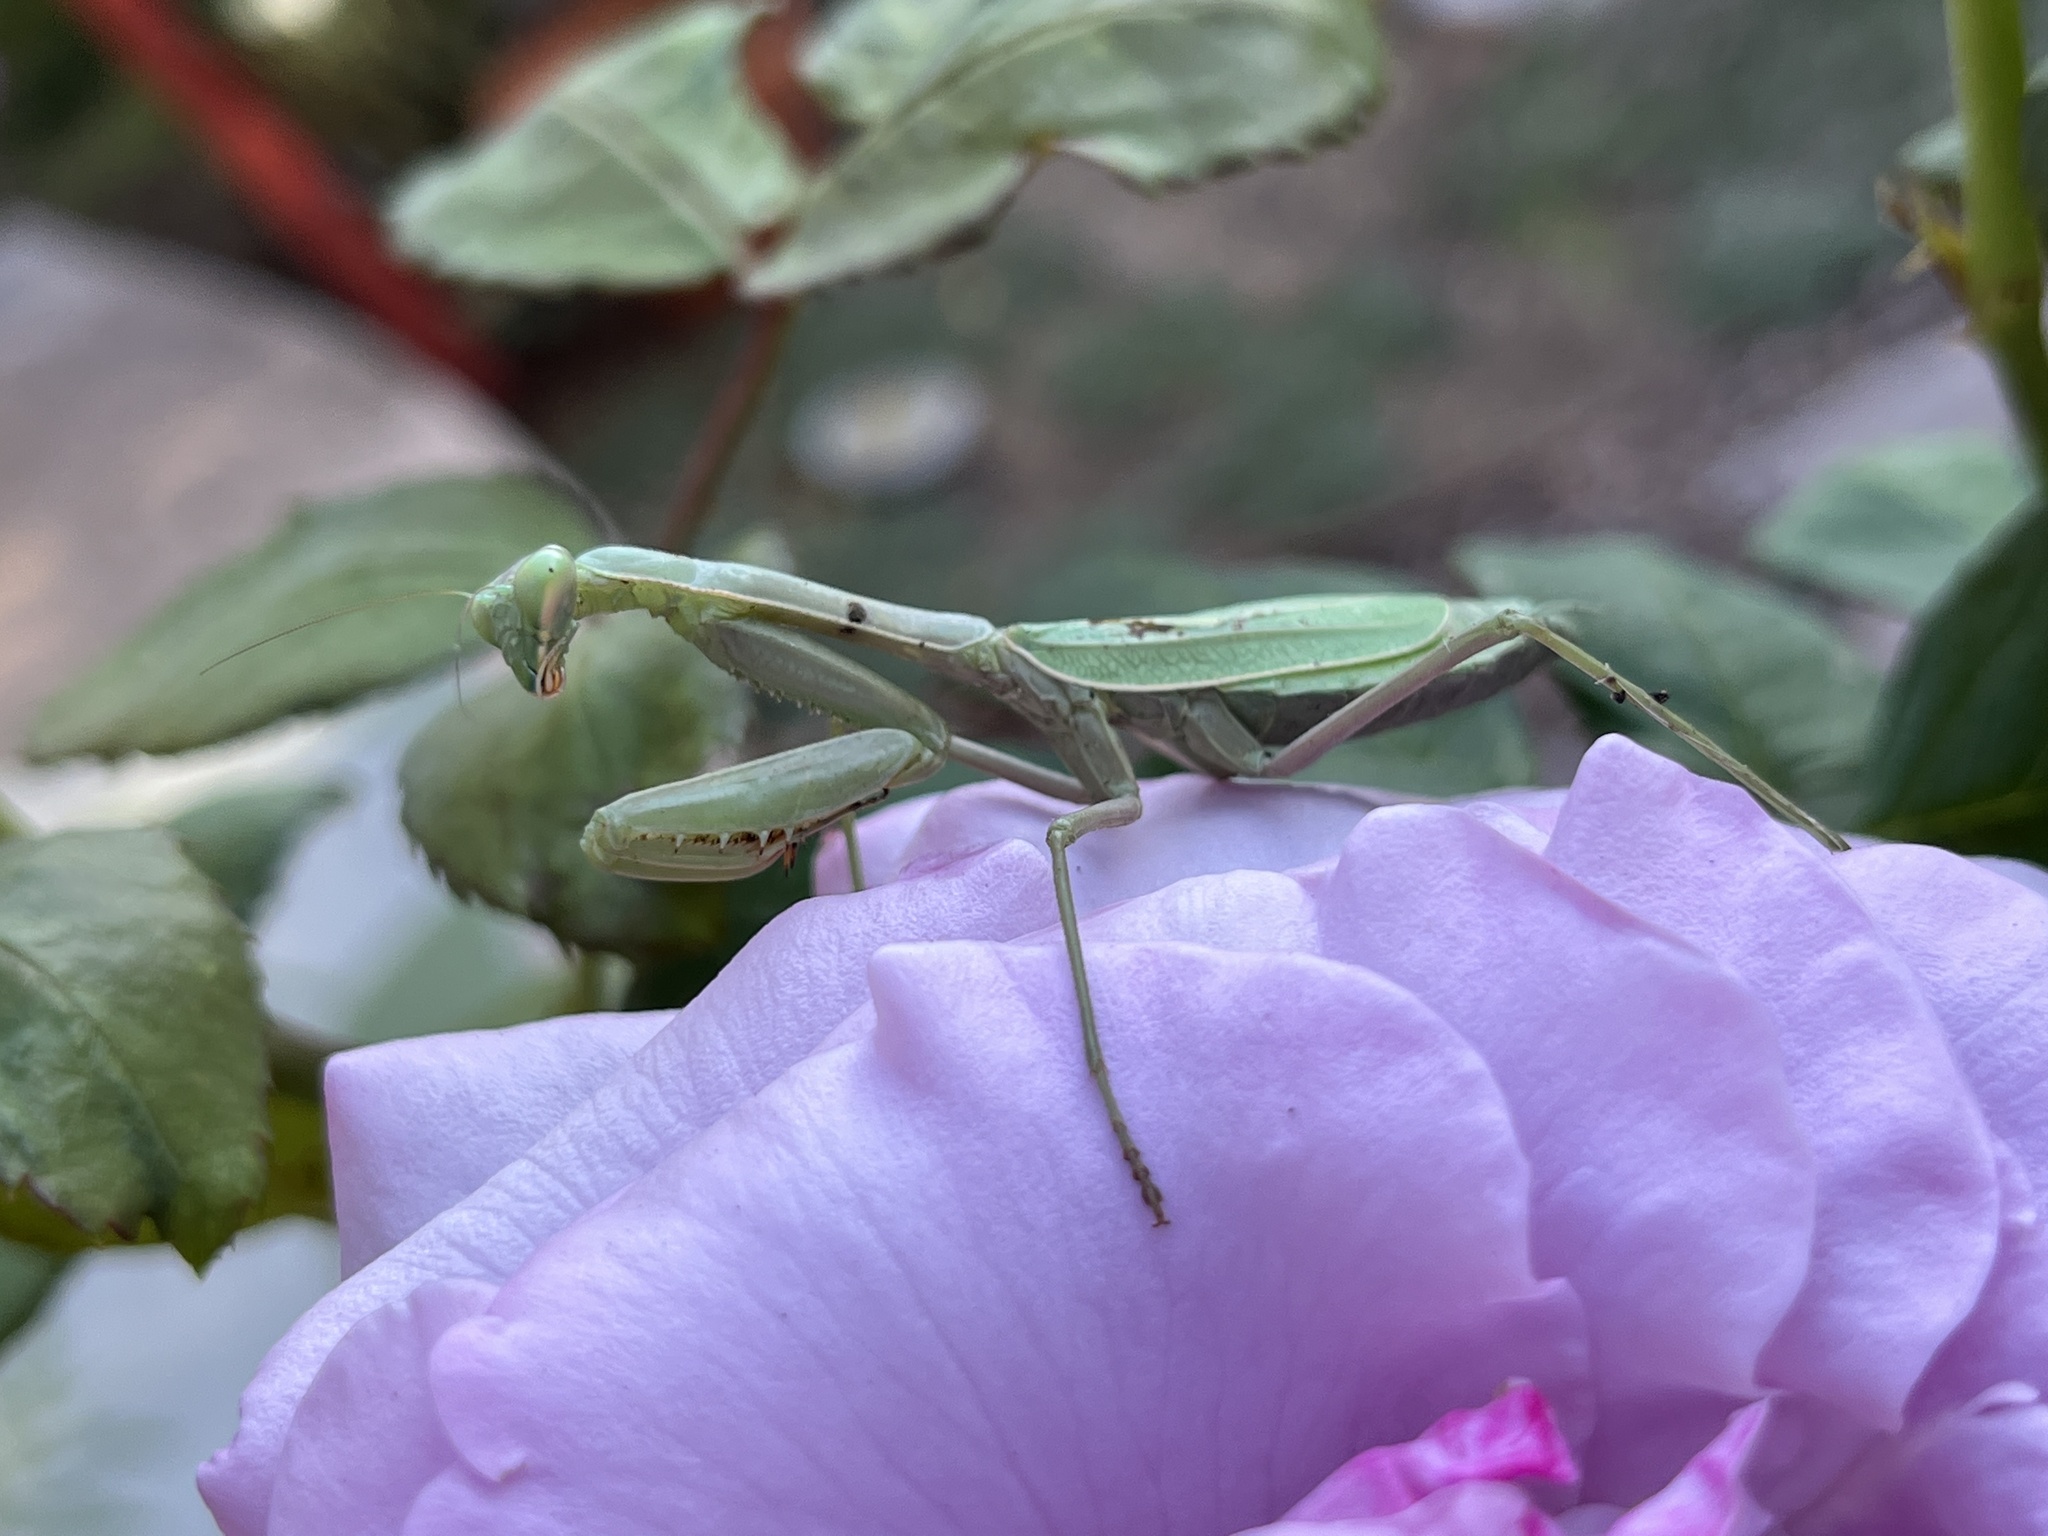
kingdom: Animalia
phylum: Arthropoda
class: Insecta
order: Mantodea
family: Mantidae
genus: Stagmomantis
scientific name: Stagmomantis limbata
